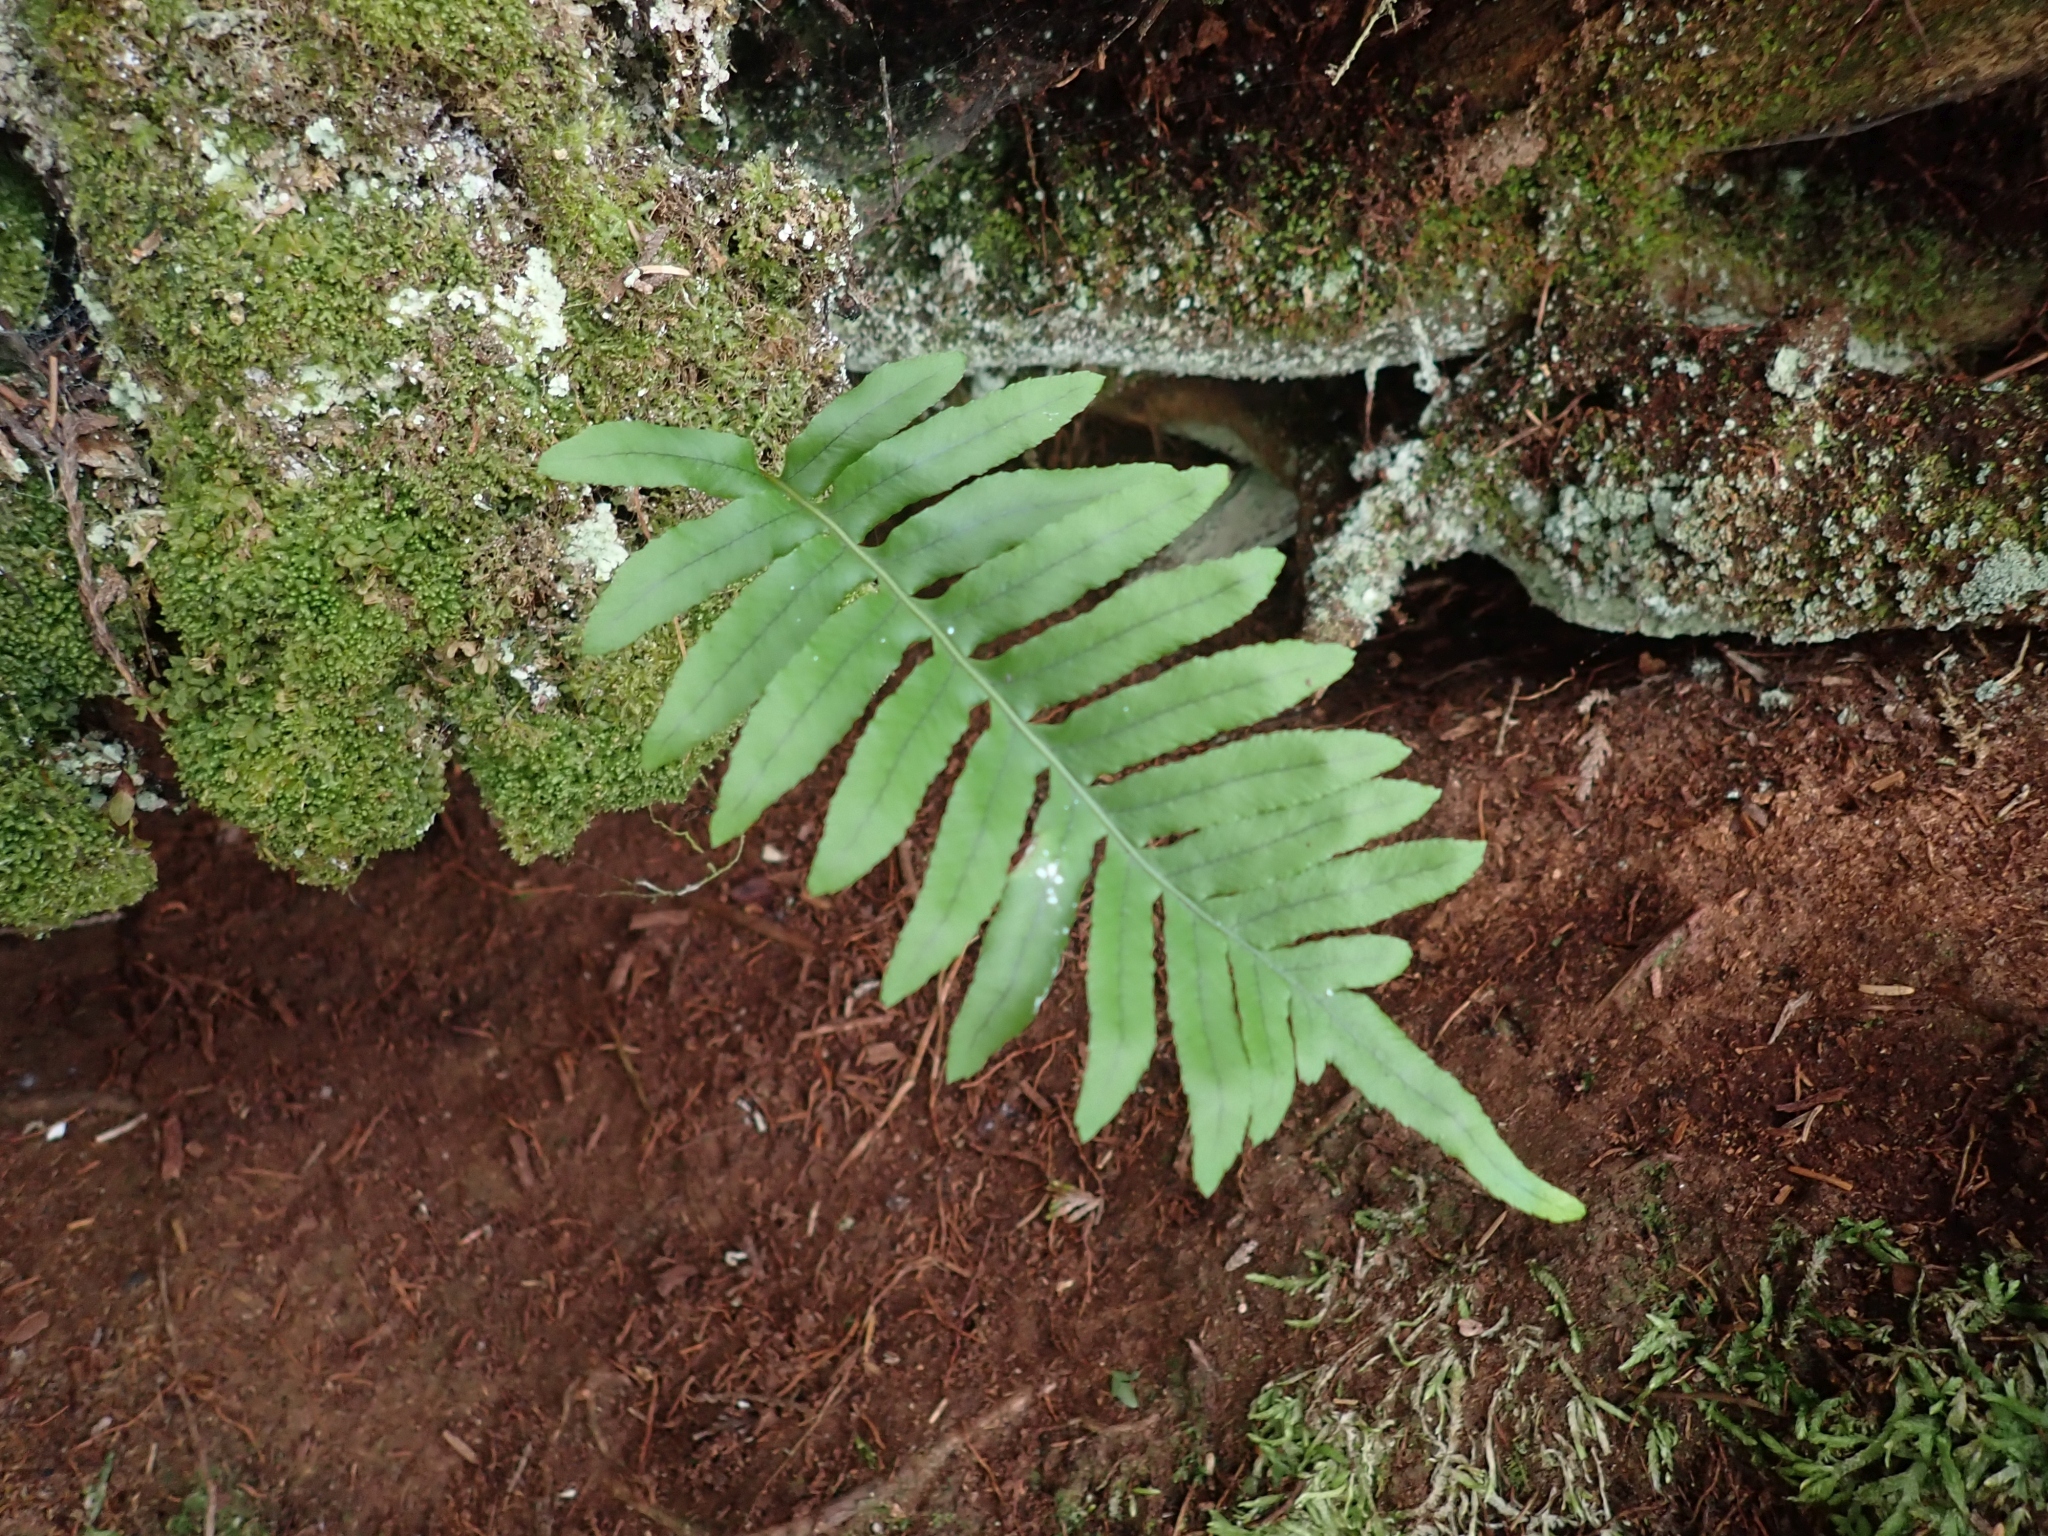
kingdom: Plantae
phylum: Tracheophyta
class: Polypodiopsida
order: Polypodiales
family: Polypodiaceae
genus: Polypodium
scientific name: Polypodium glycyrrhiza
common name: Licorice fern
